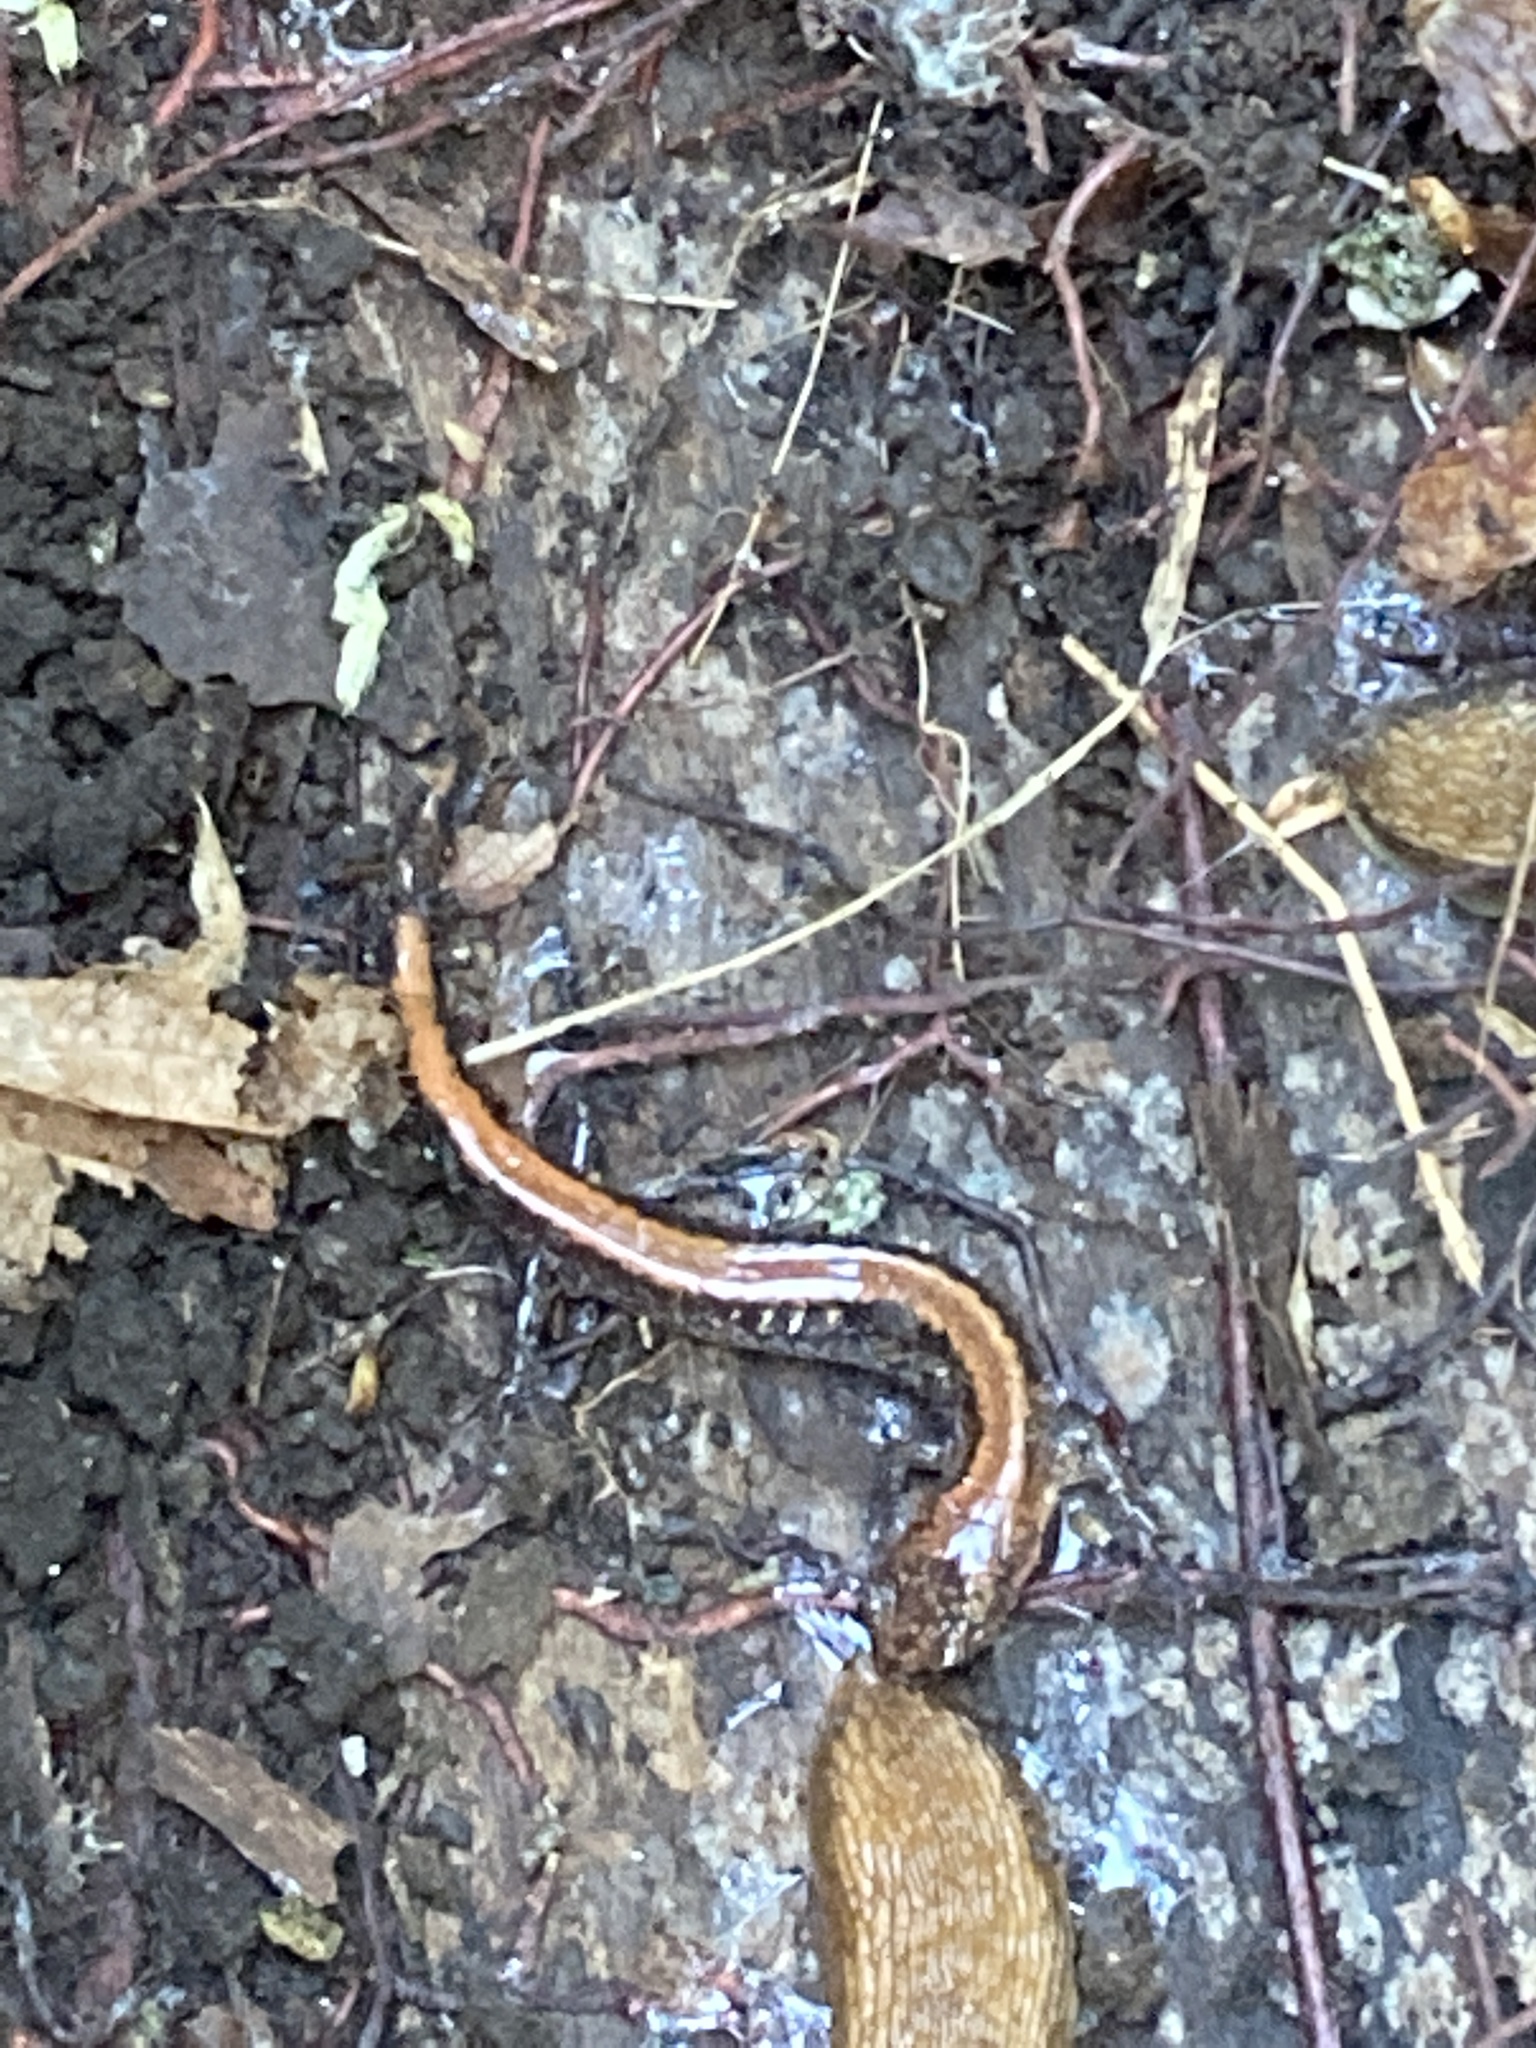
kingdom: Animalia
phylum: Chordata
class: Amphibia
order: Caudata
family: Plethodontidae
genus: Plethodon
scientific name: Plethodon cinereus
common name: Redback salamander
